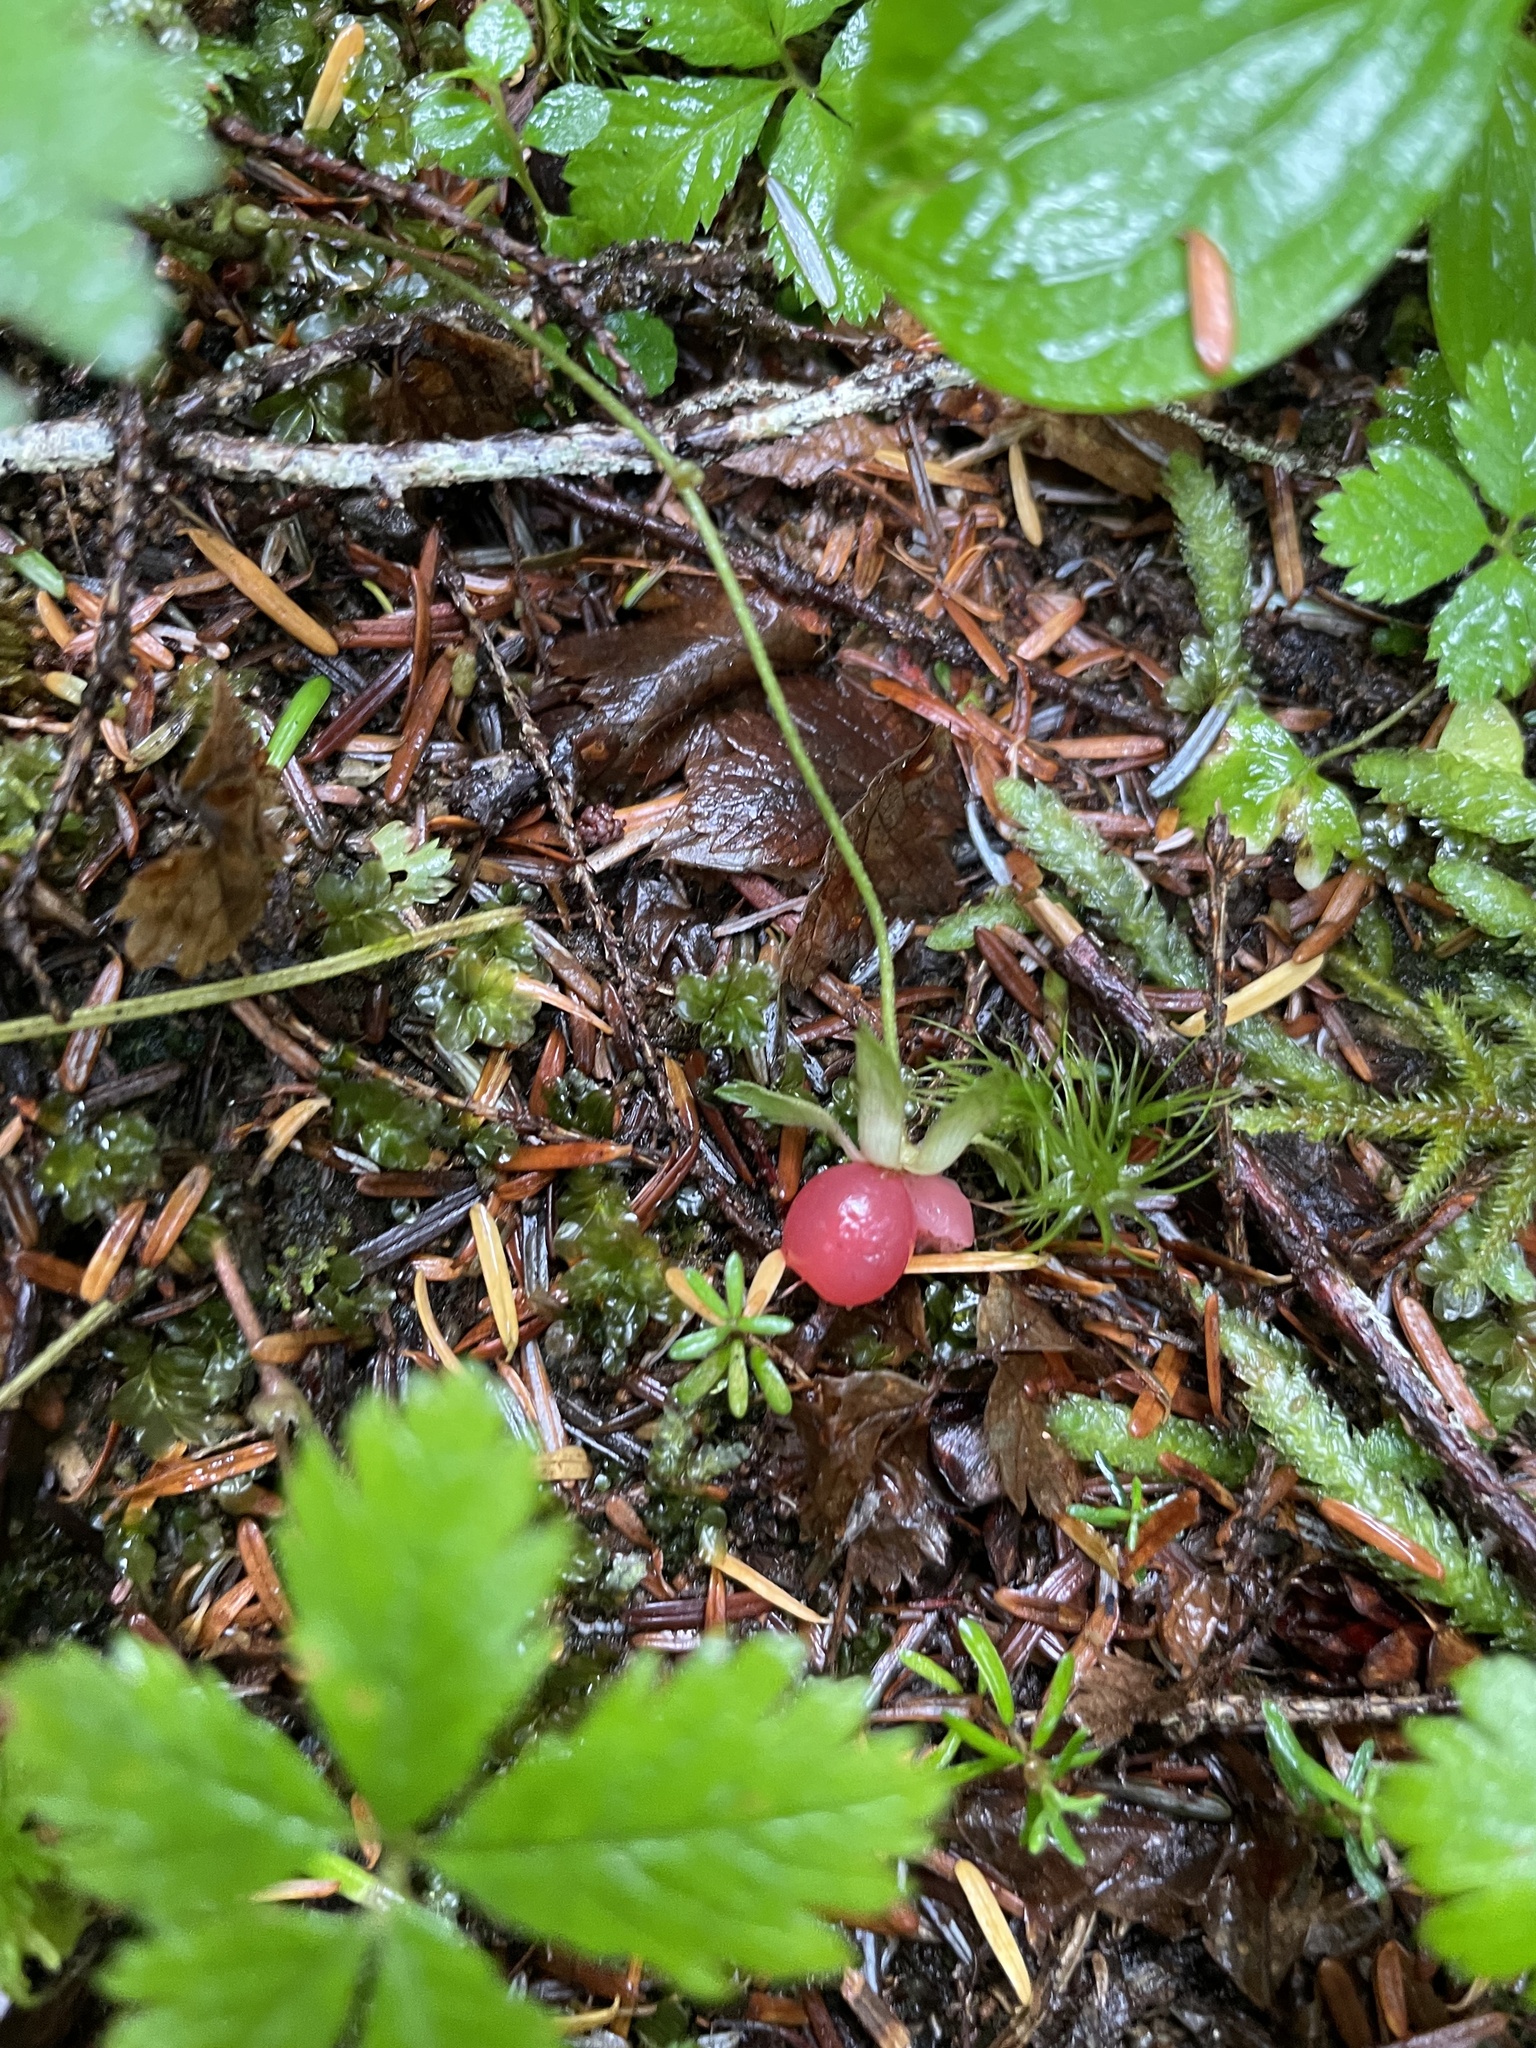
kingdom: Plantae
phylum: Tracheophyta
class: Magnoliopsida
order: Rosales
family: Rosaceae
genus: Rubus
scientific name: Rubus pedatus
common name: Creeping raspberry
